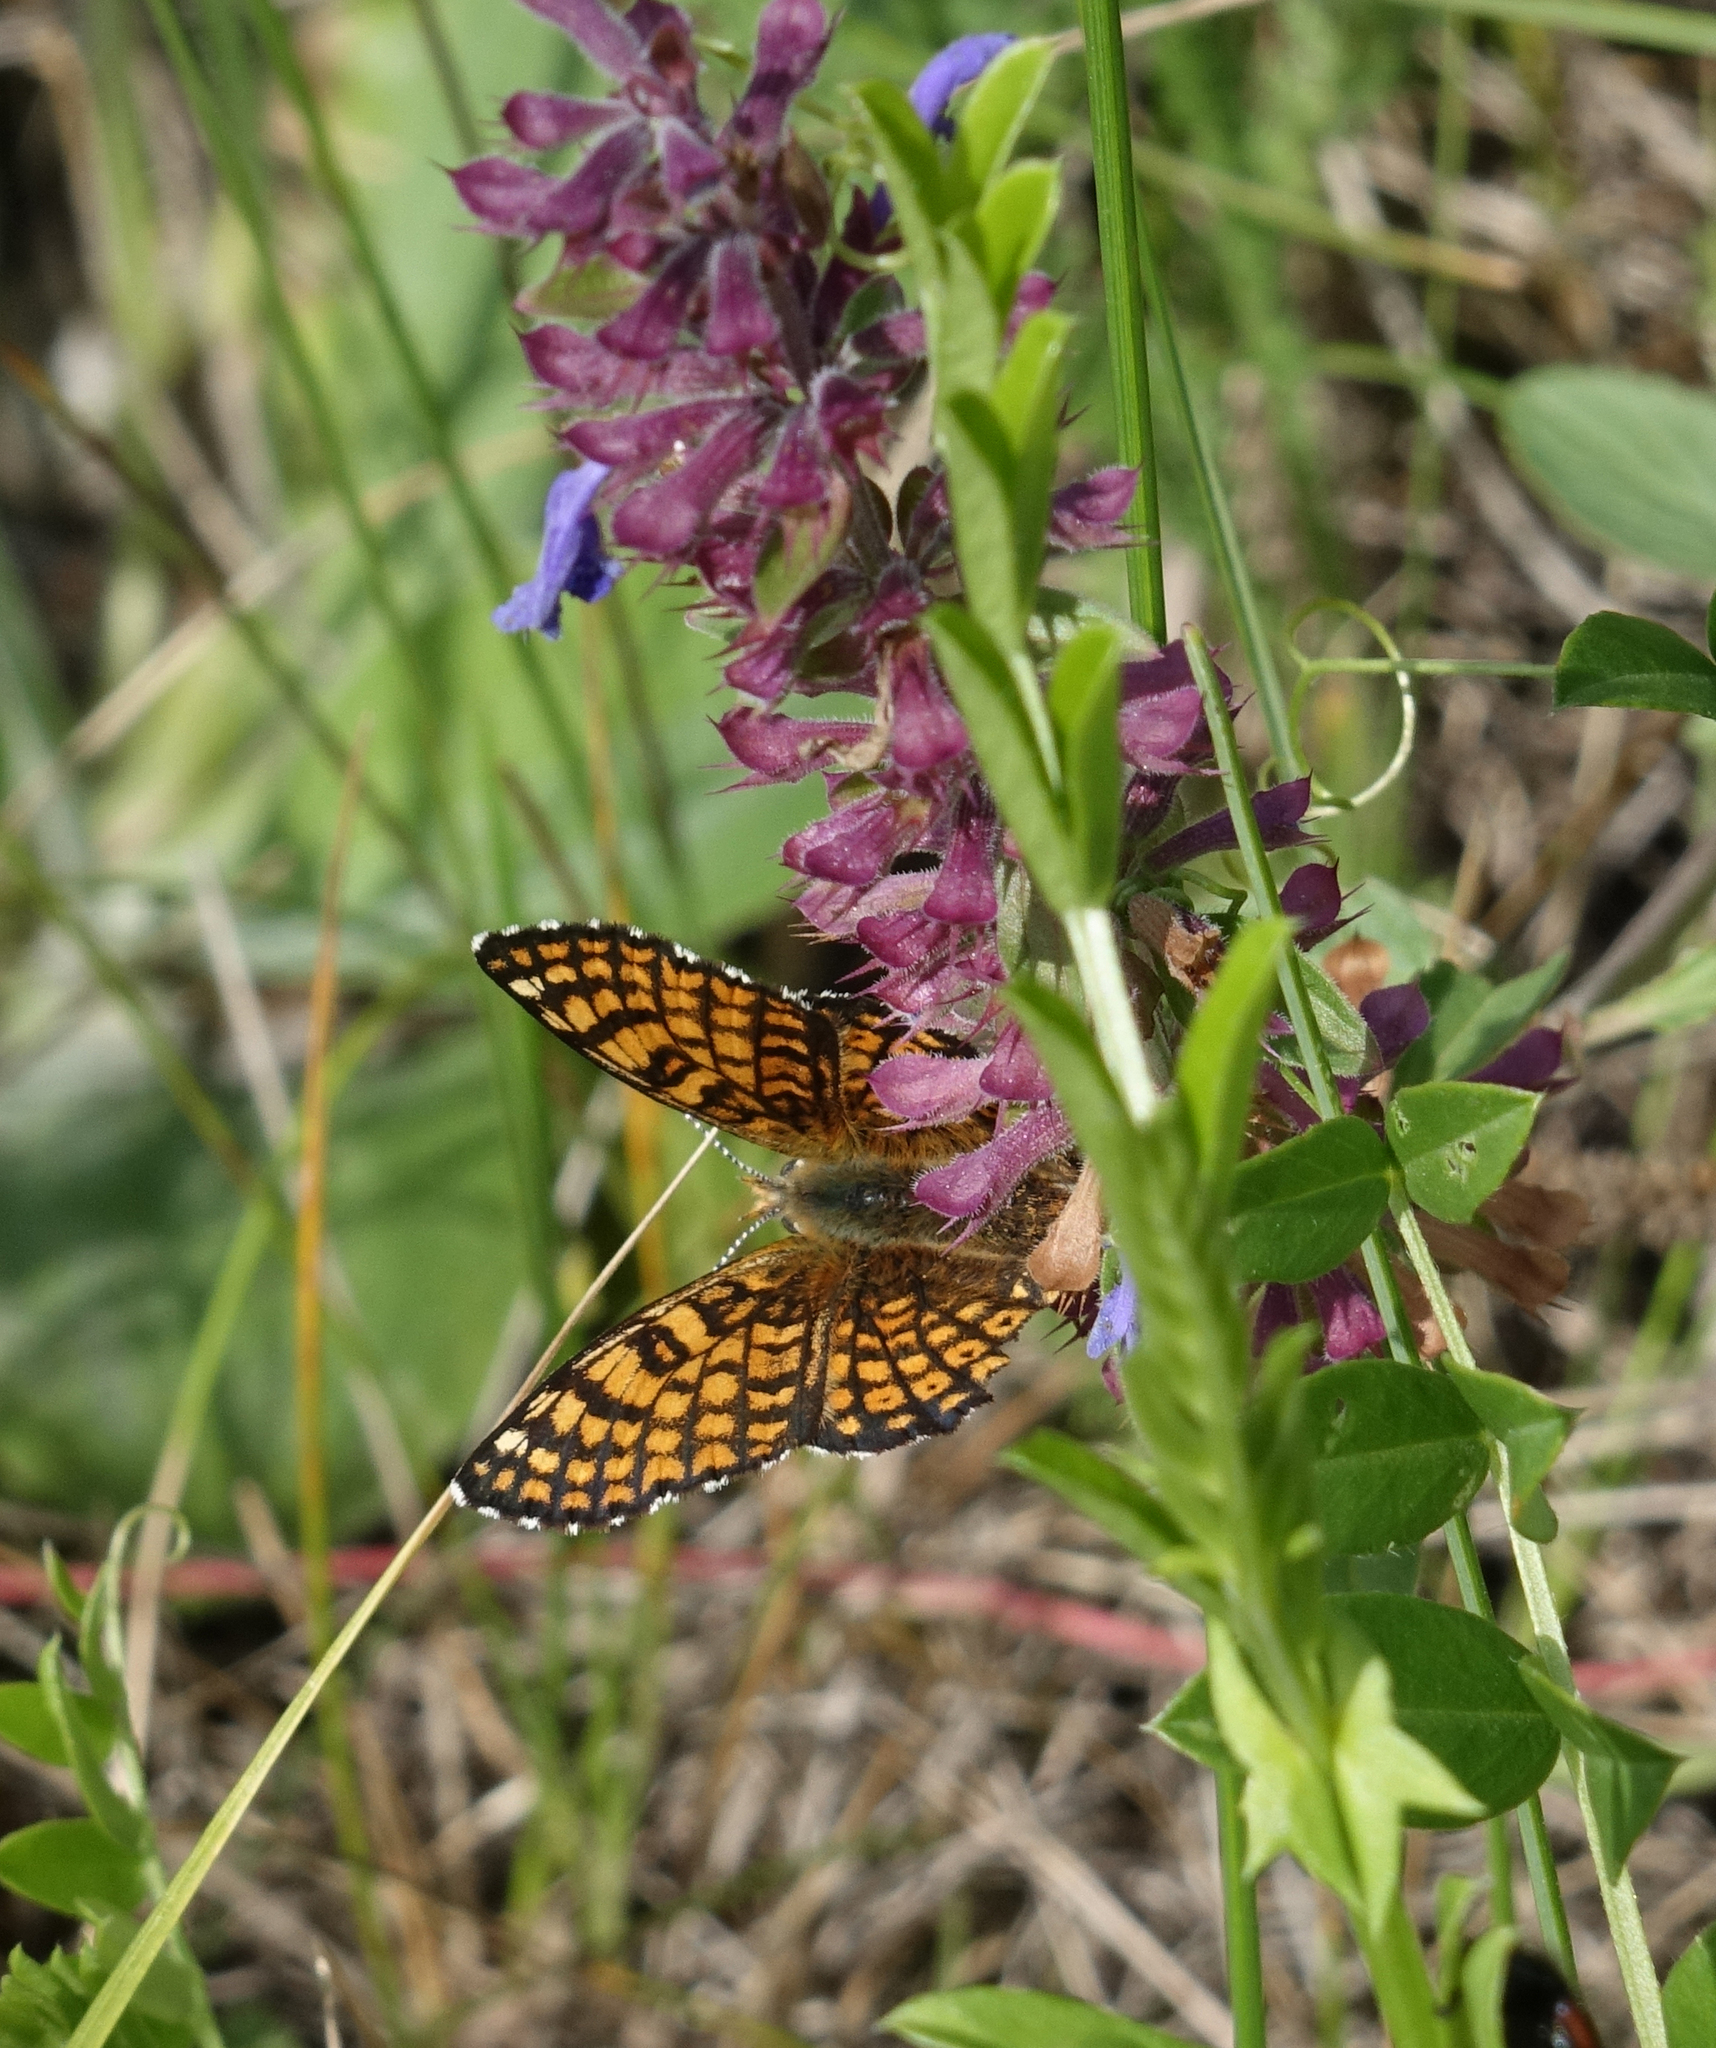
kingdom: Plantae
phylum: Tracheophyta
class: Magnoliopsida
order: Lamiales
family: Lamiaceae
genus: Dracocephalum
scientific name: Dracocephalum nutans
